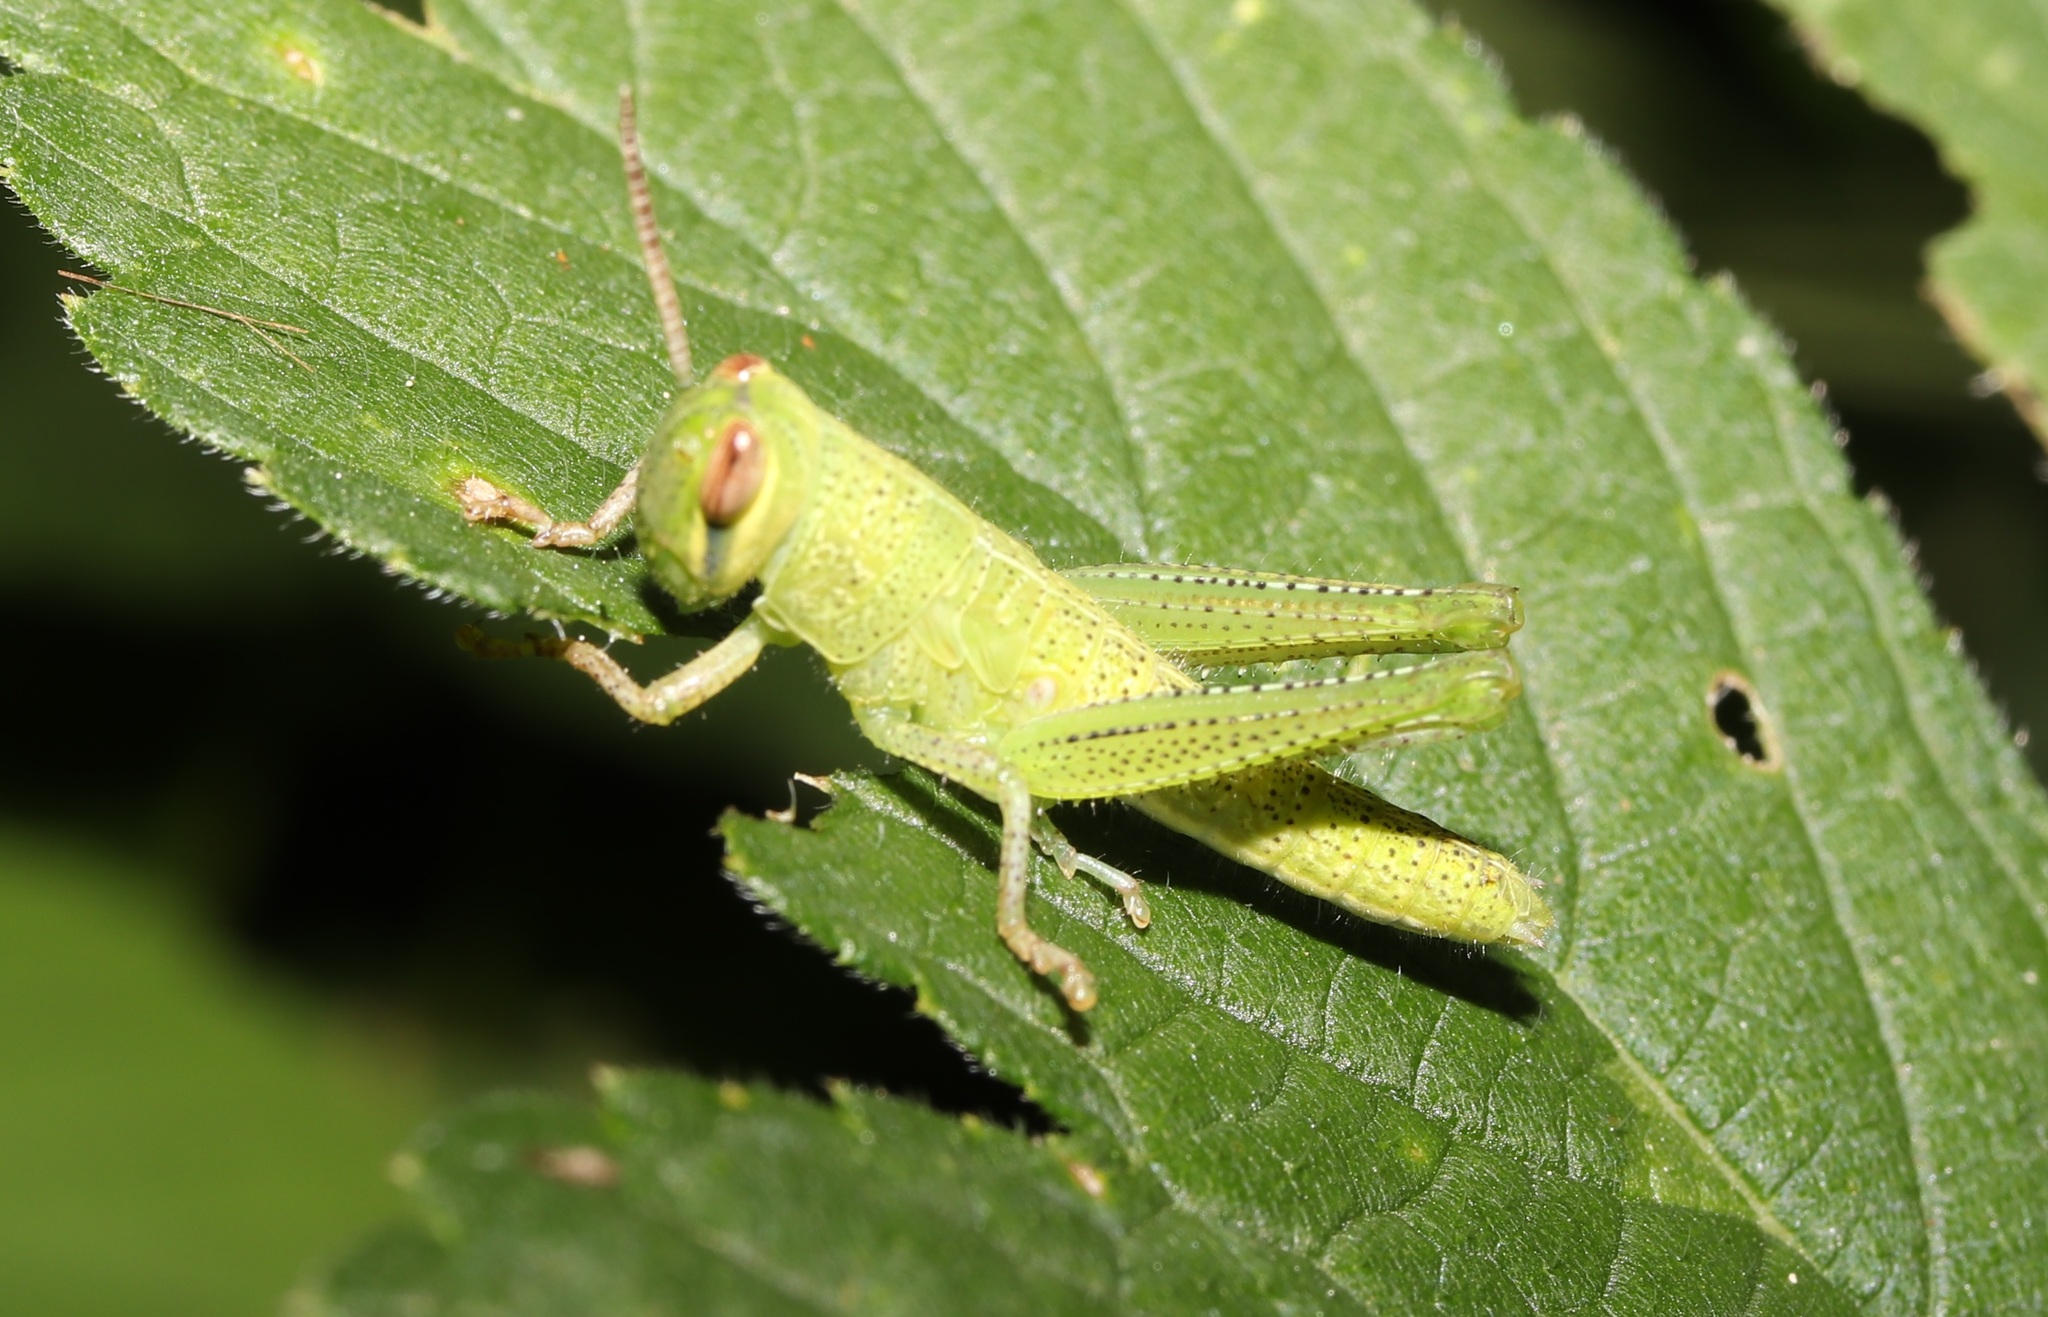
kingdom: Animalia
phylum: Arthropoda
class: Insecta
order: Orthoptera
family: Acrididae
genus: Patanga
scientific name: Patanga japonica
